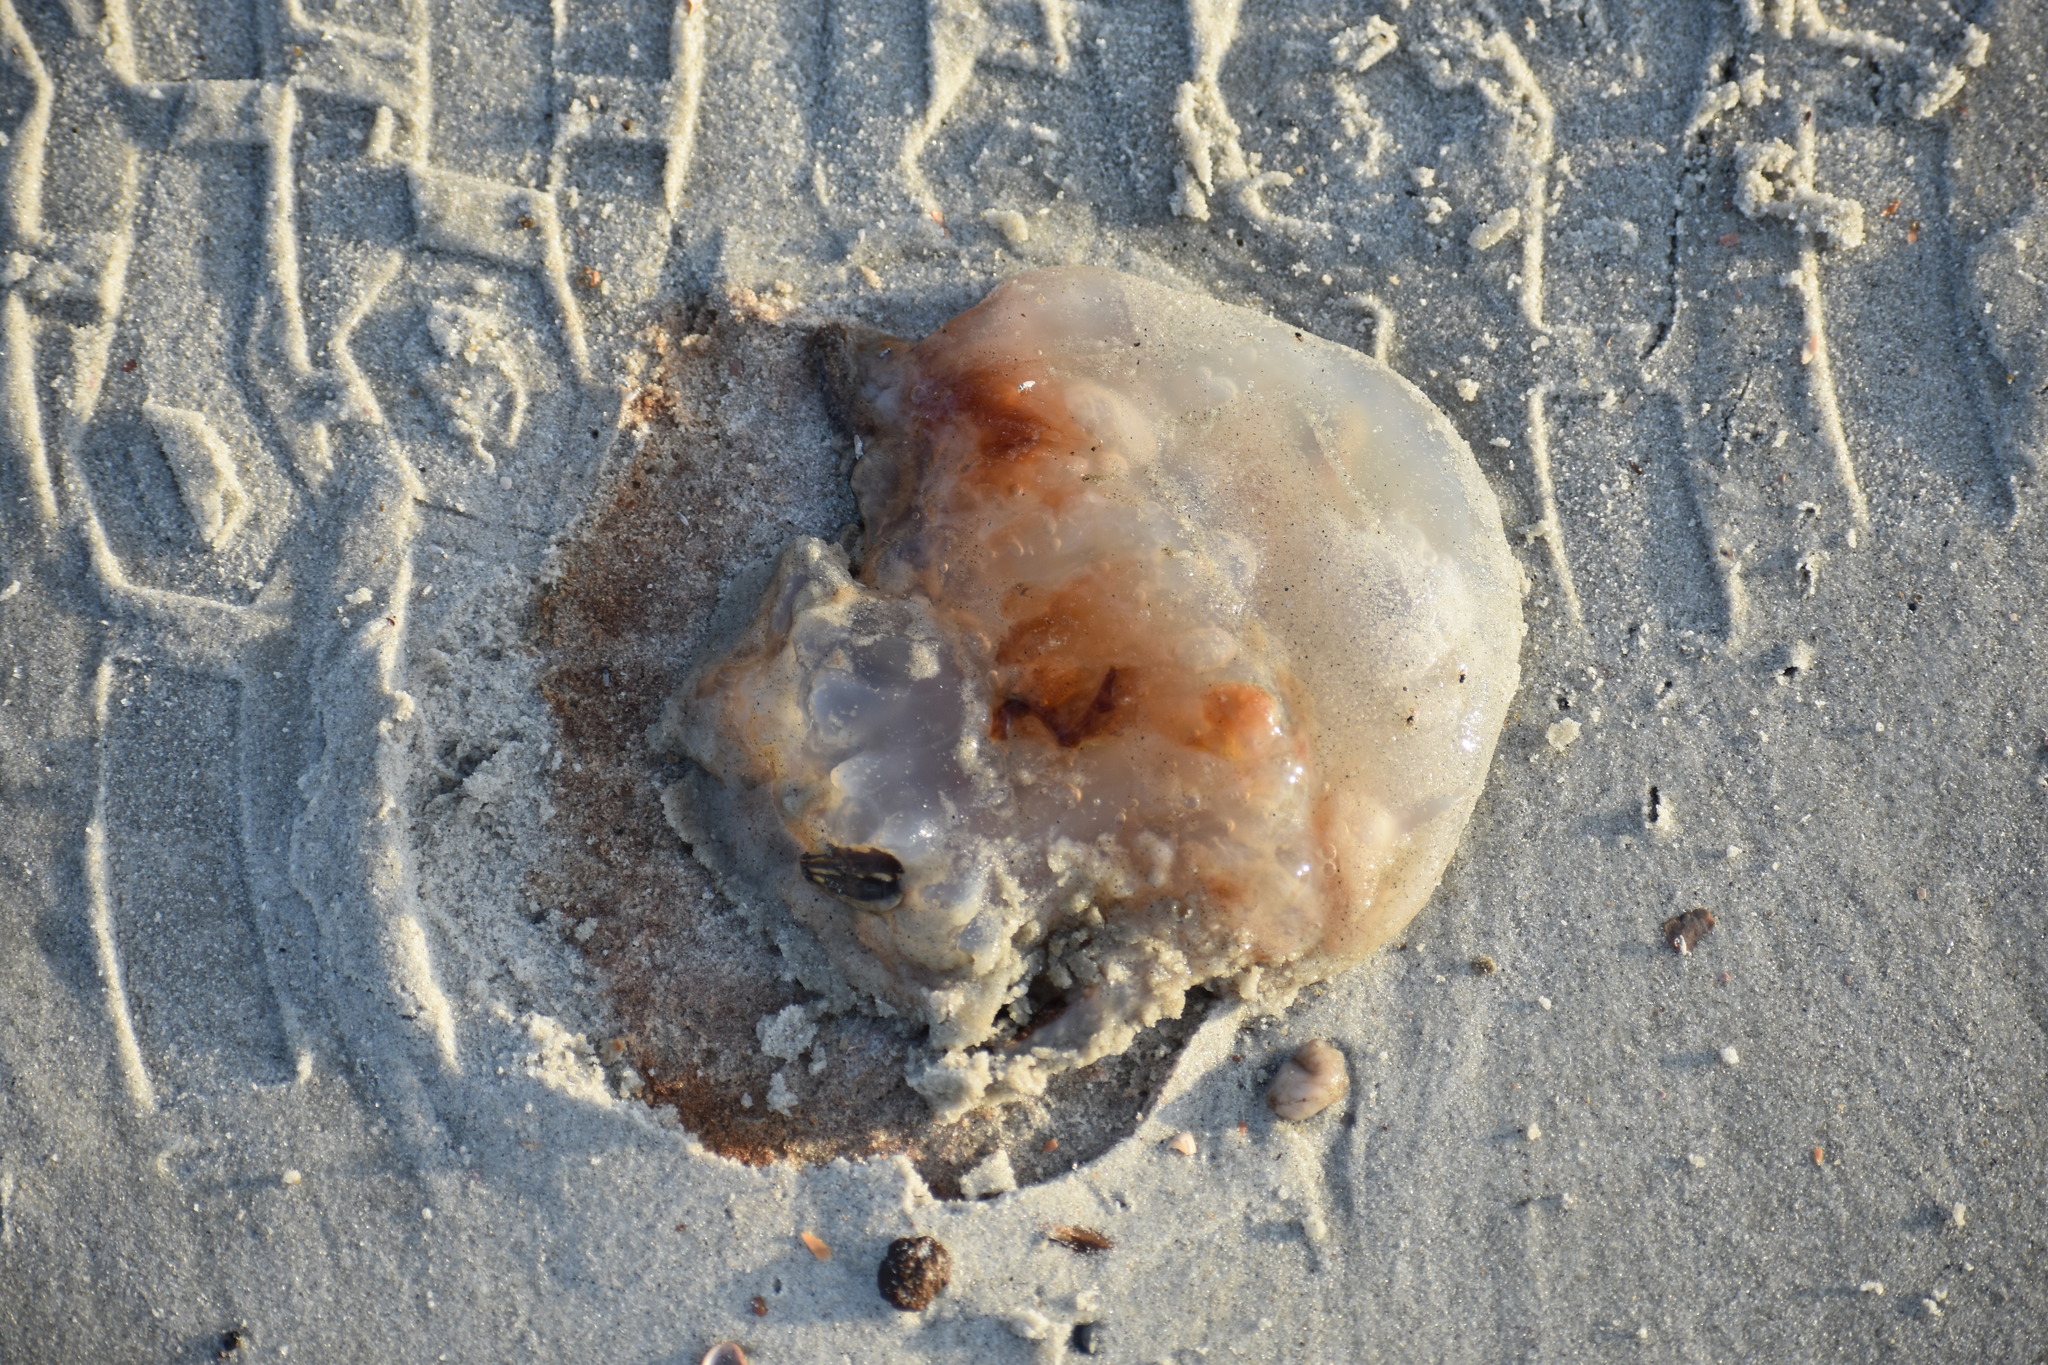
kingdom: Animalia
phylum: Cnidaria
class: Scyphozoa
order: Rhizostomeae
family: Stomolophidae
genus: Stomolophus
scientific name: Stomolophus meleagris
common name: Cabbagehead
